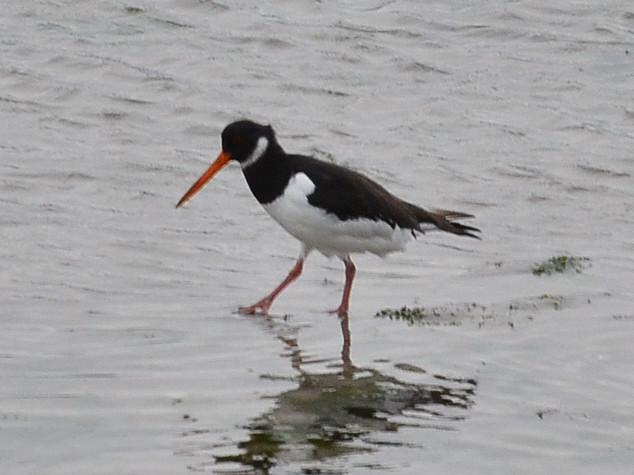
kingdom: Animalia
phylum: Chordata
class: Aves
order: Charadriiformes
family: Haematopodidae
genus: Haematopus
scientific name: Haematopus ostralegus
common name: Eurasian oystercatcher
